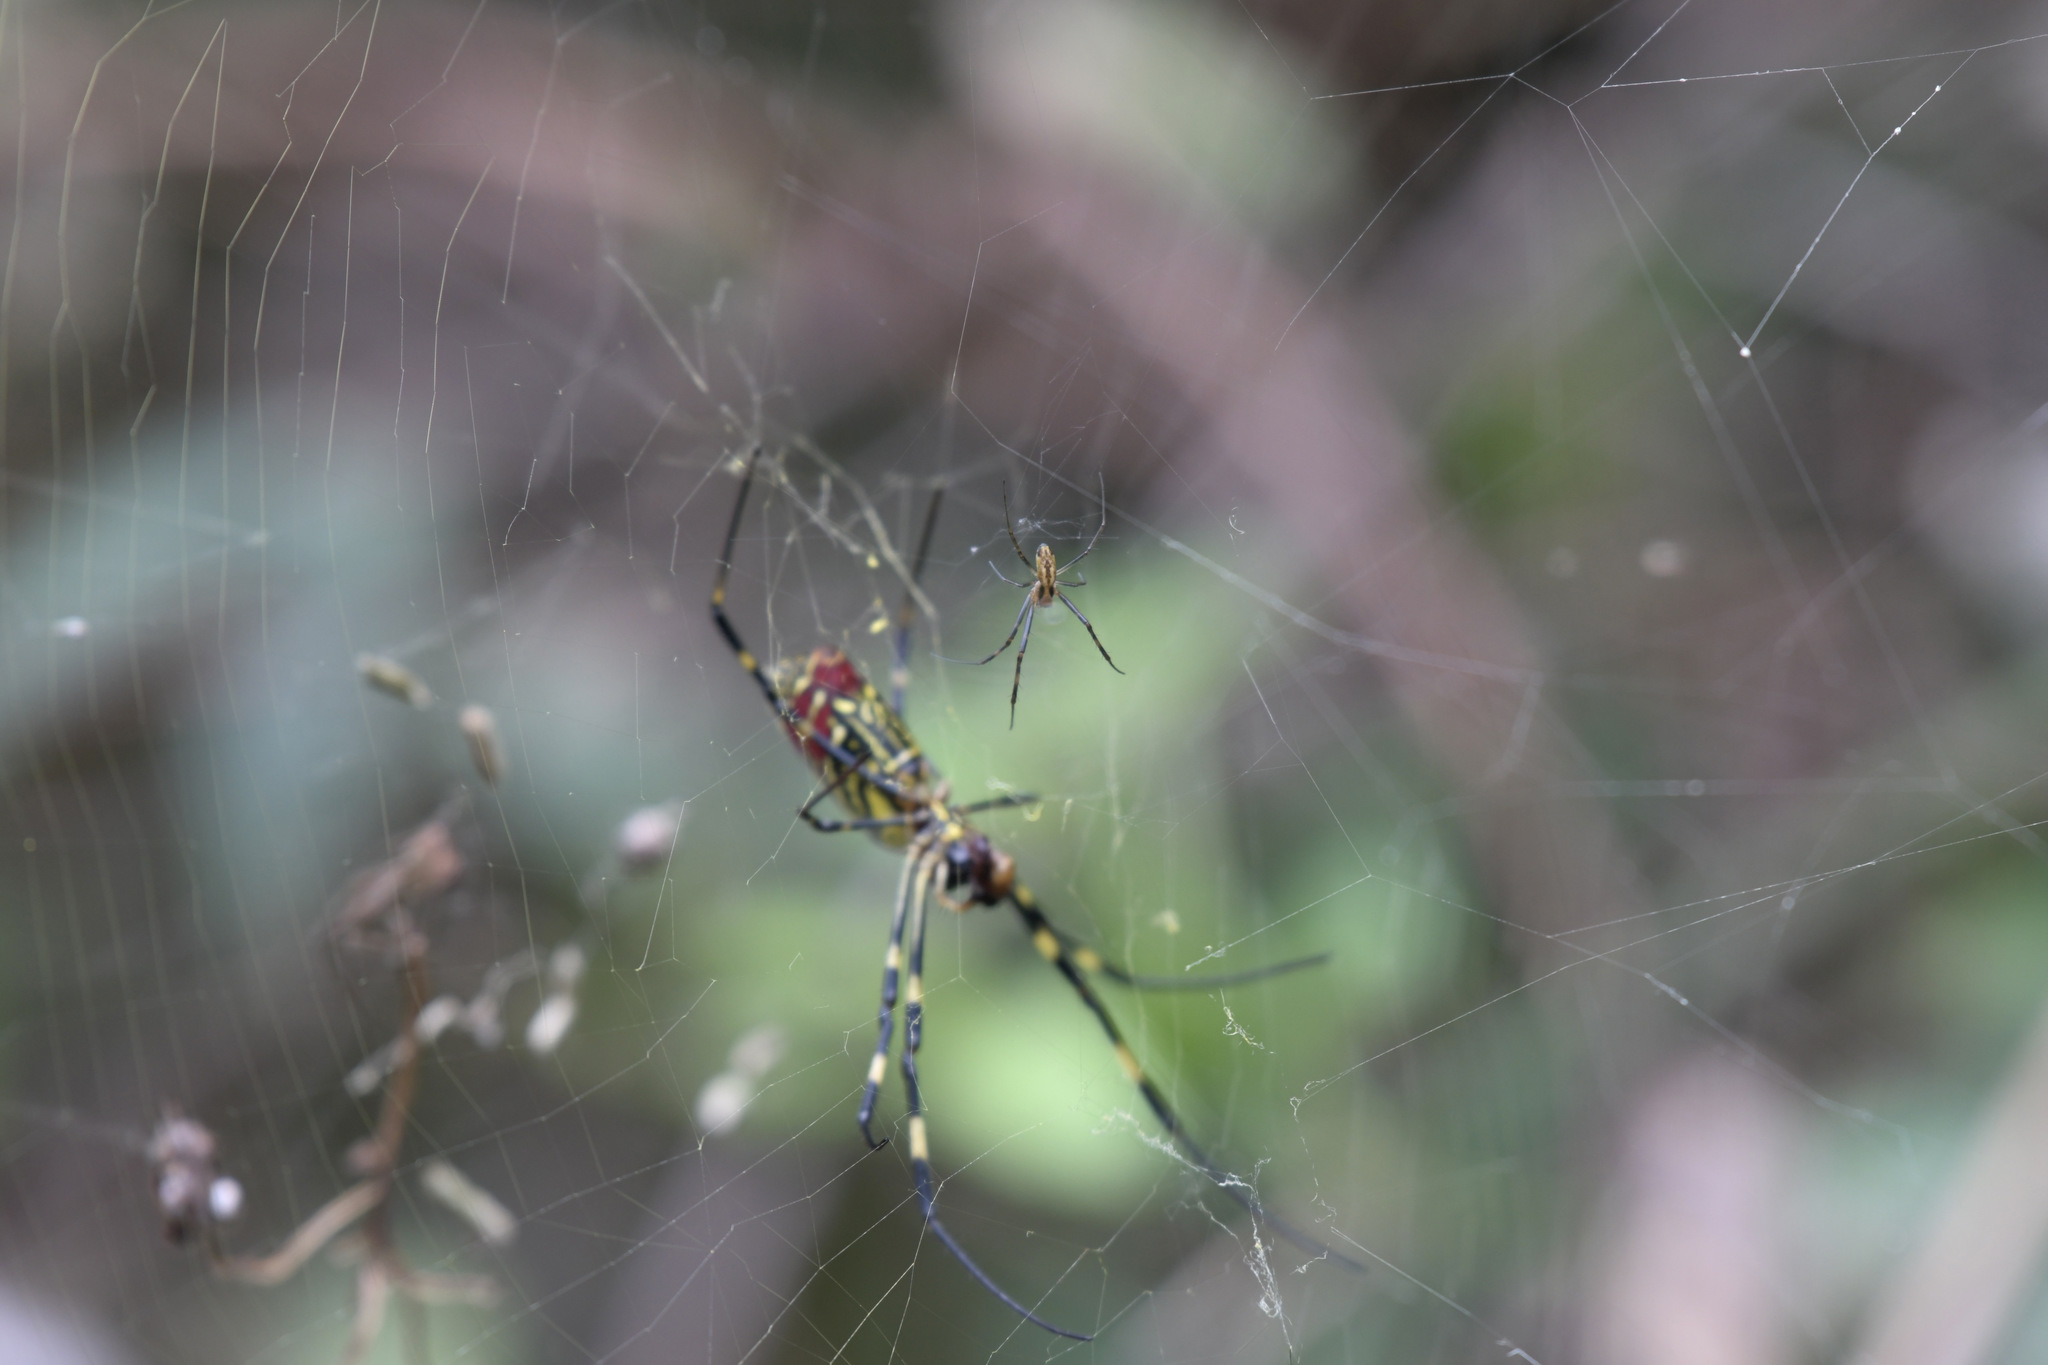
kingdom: Animalia
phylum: Arthropoda
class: Arachnida
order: Araneae
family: Araneidae
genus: Trichonephila
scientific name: Trichonephila clavata
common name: Jorō spider
